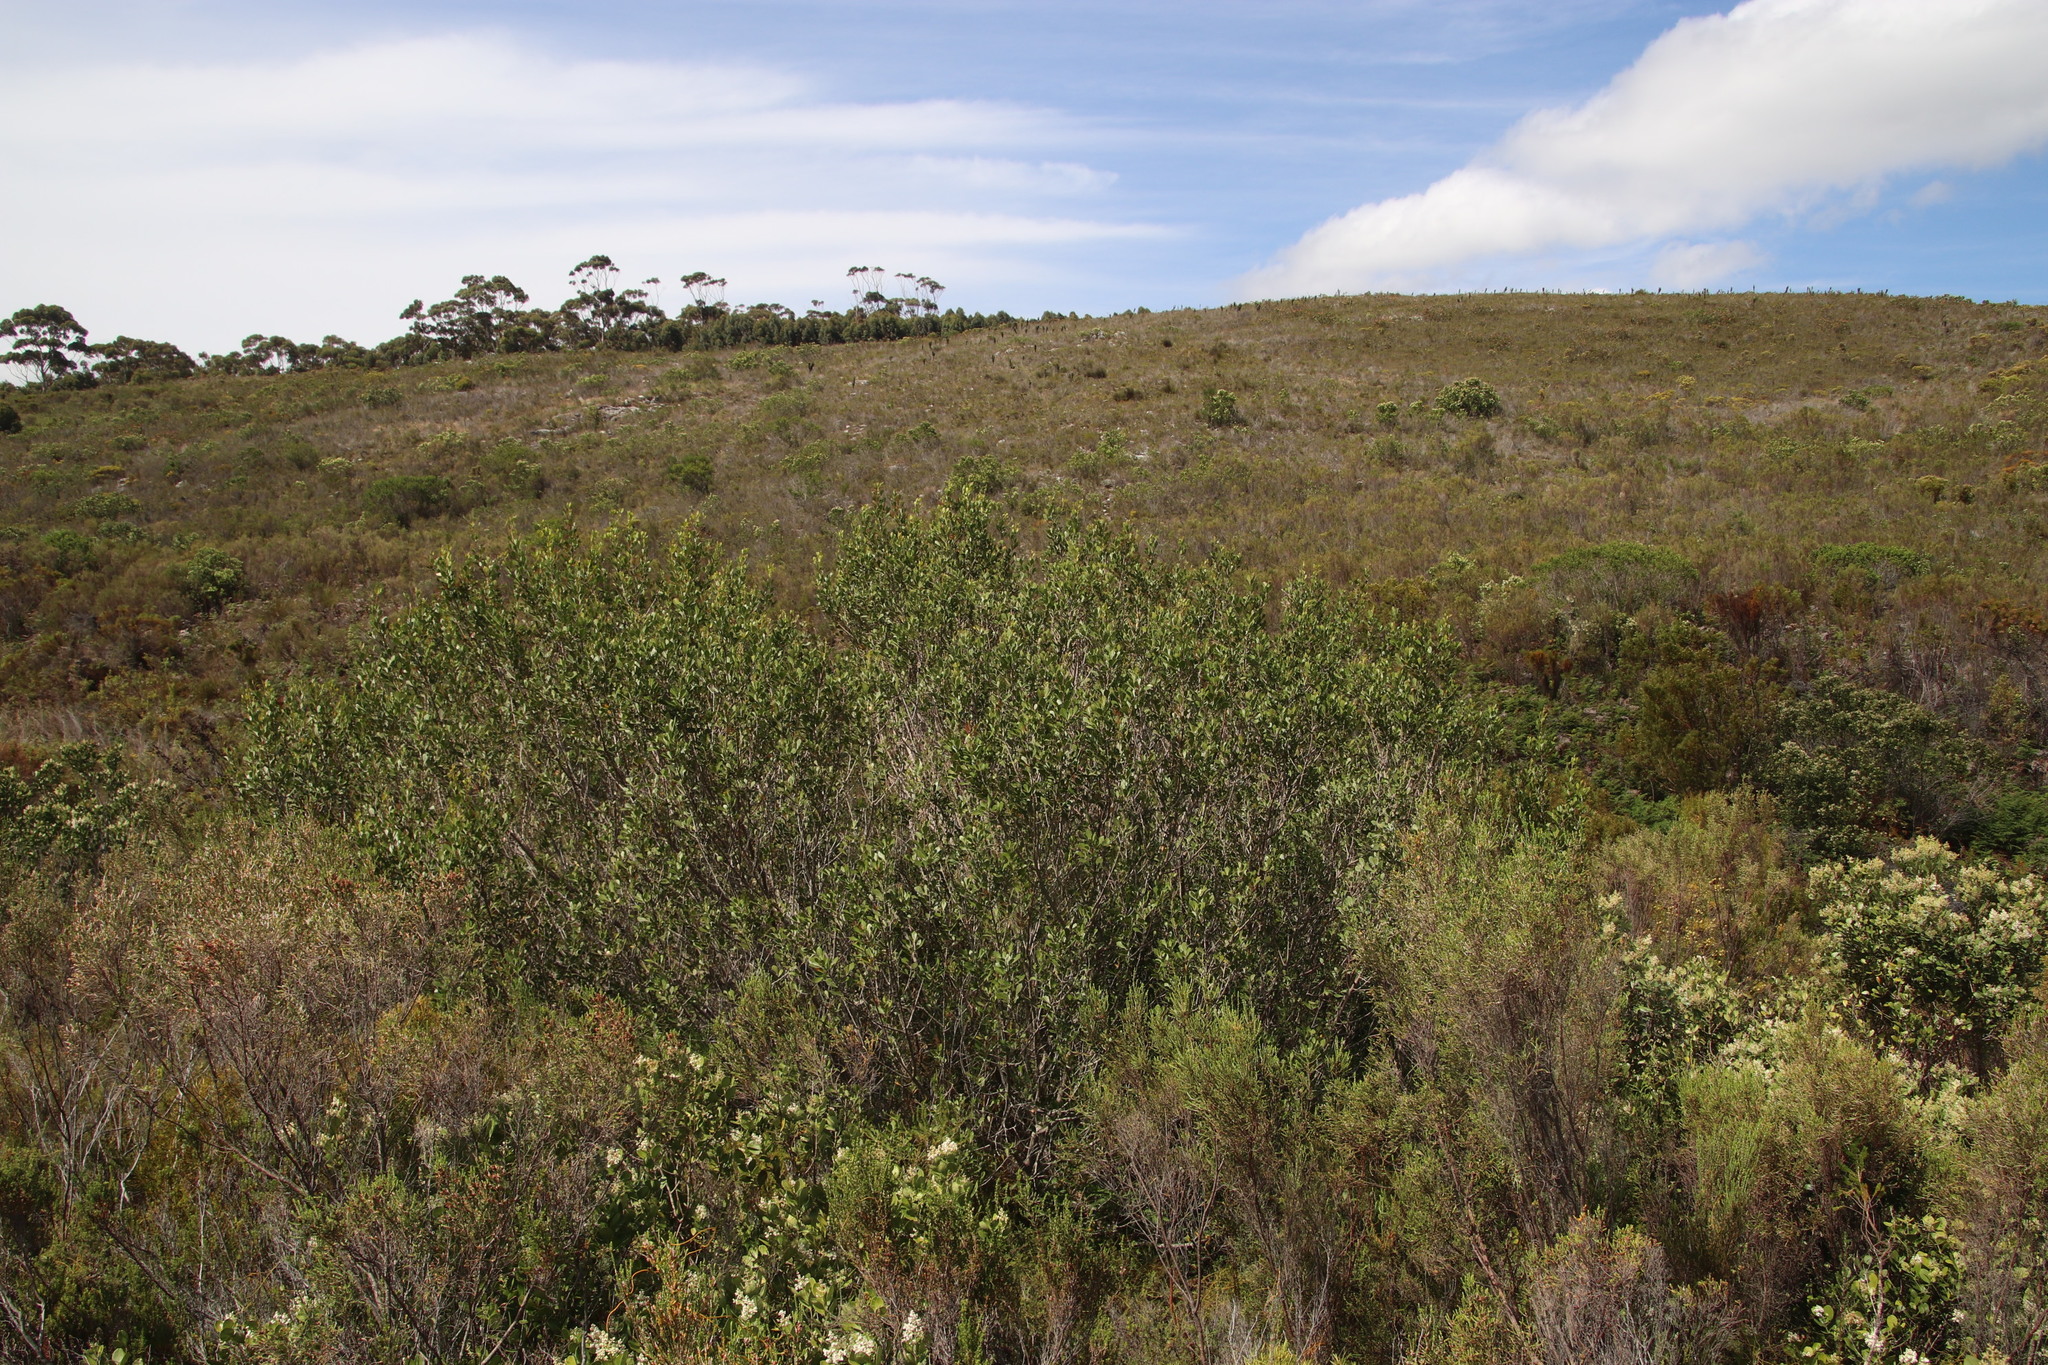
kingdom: Plantae
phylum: Tracheophyta
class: Magnoliopsida
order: Sapindales
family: Anacardiaceae
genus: Searsia
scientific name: Searsia lucida
